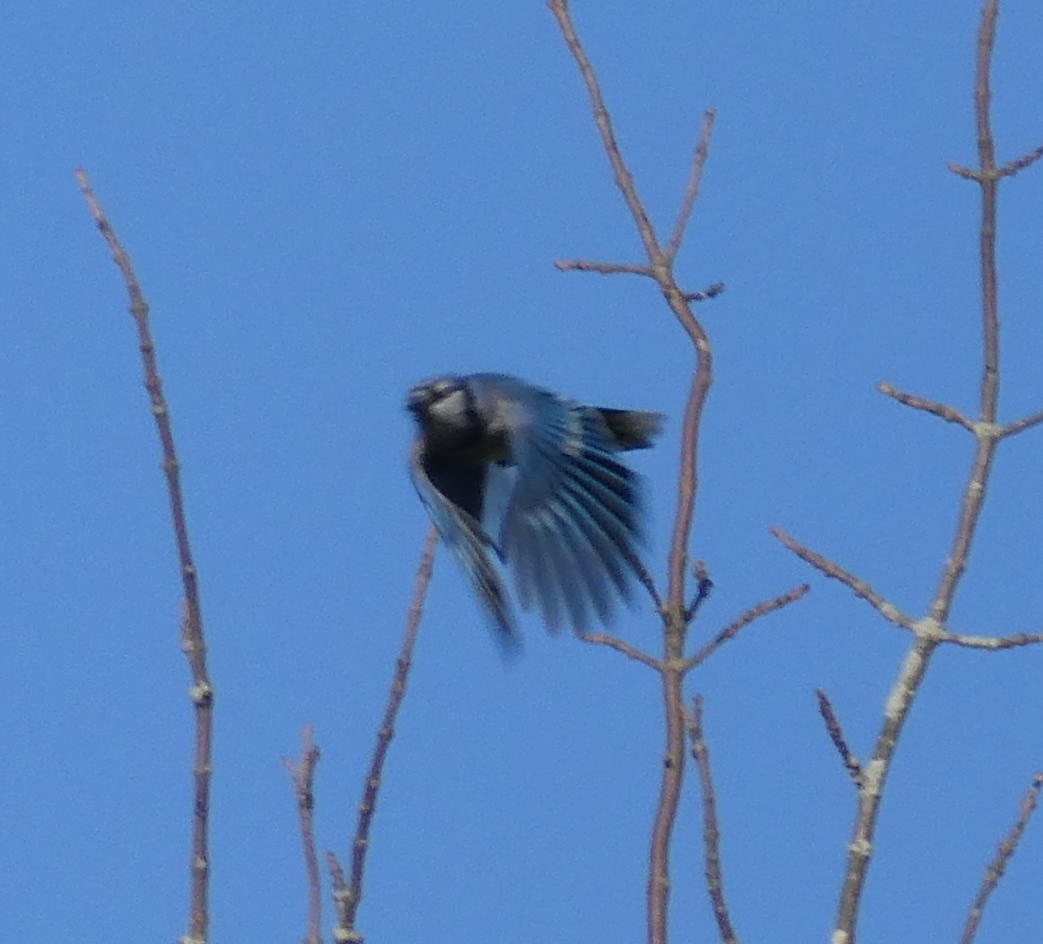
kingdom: Animalia
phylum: Chordata
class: Aves
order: Passeriformes
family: Corvidae
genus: Cyanocitta
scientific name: Cyanocitta cristata
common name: Blue jay
